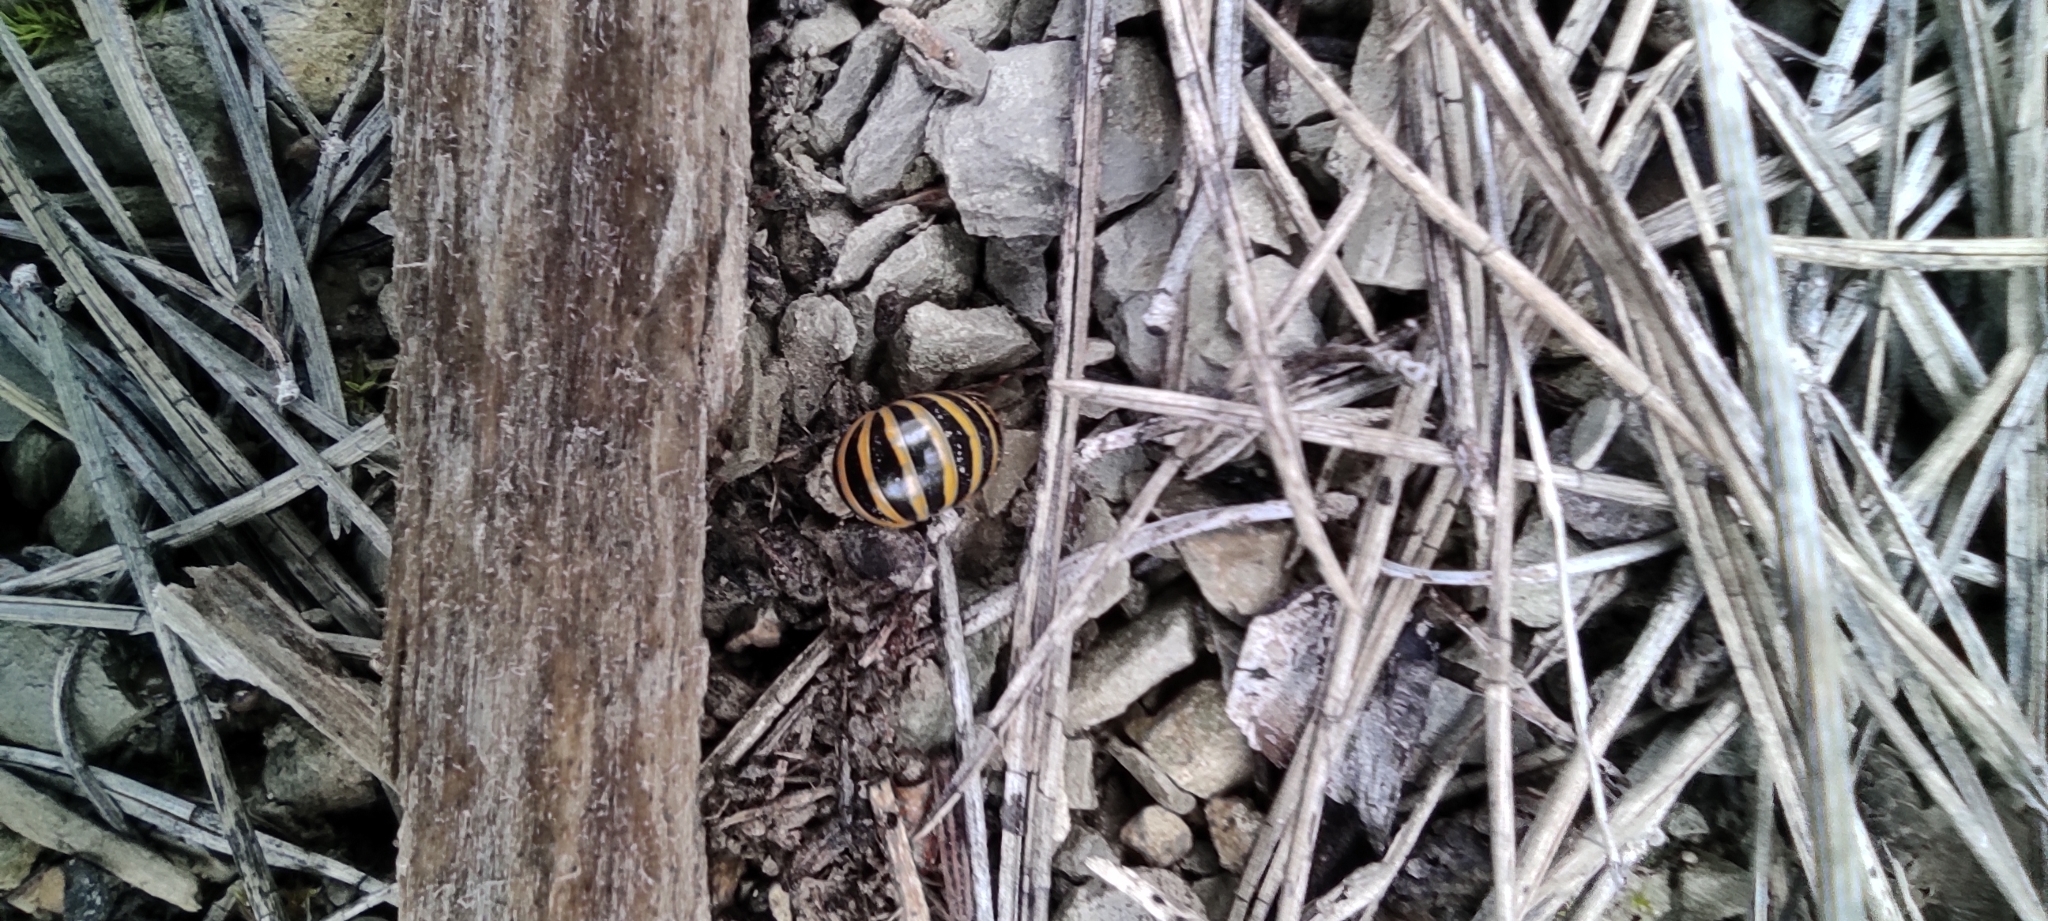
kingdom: Animalia
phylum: Arthropoda
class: Diplopoda
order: Glomerida
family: Glomeridae
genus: Glomeris
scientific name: Glomeris annulata
